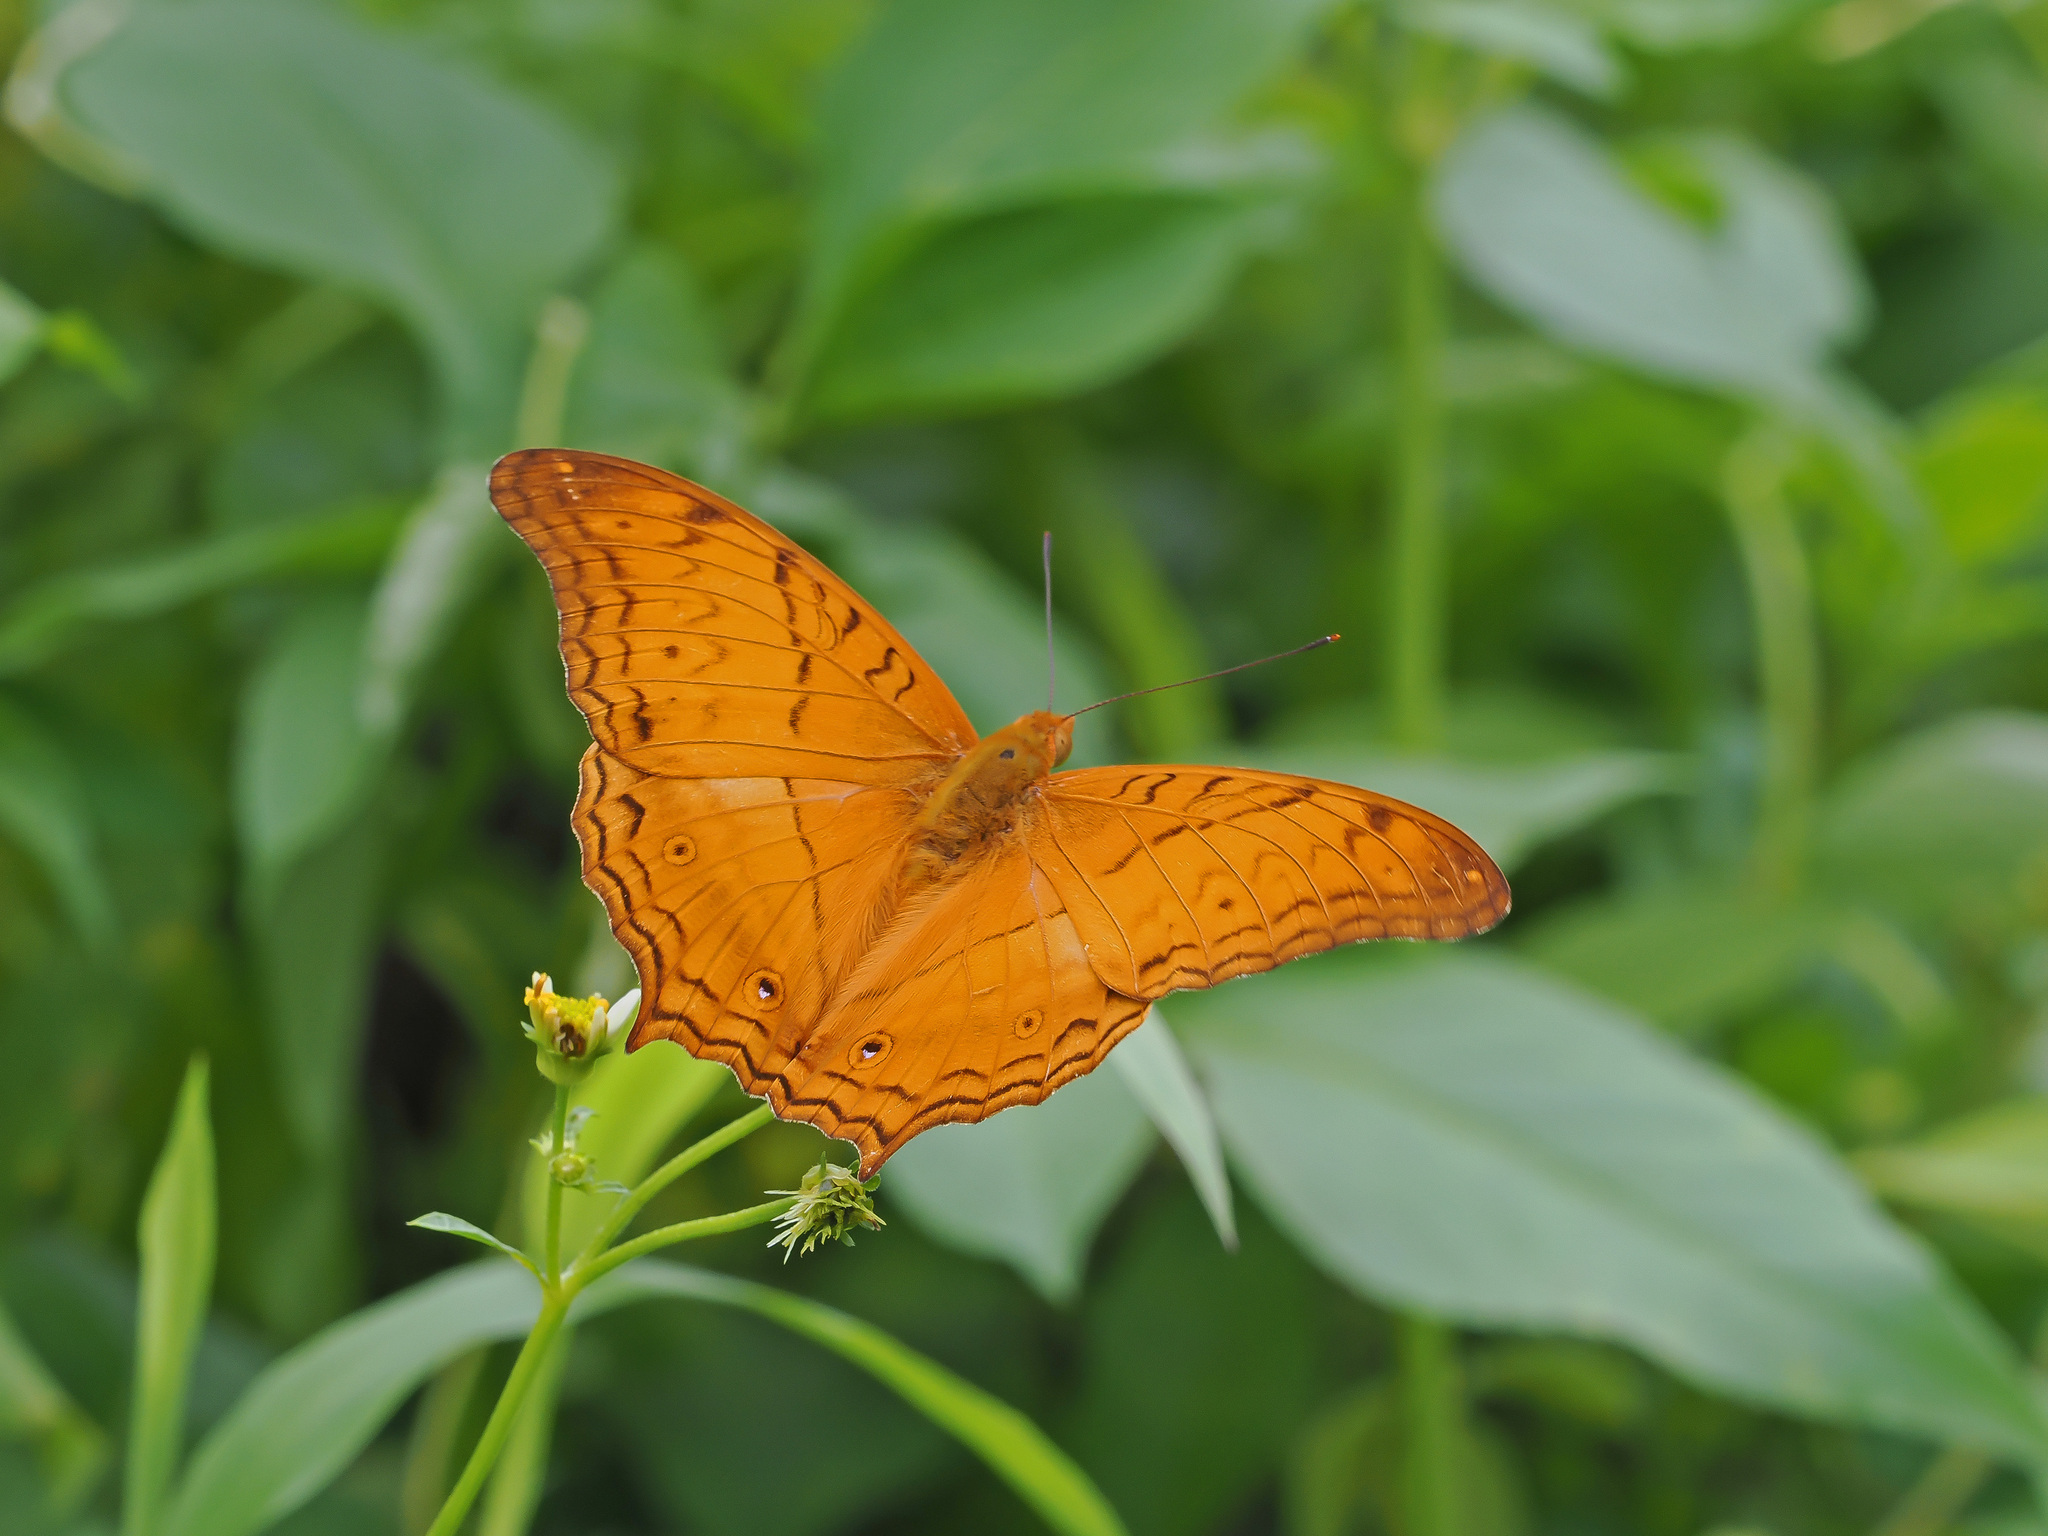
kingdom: Animalia
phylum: Arthropoda
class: Insecta
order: Lepidoptera
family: Nymphalidae
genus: Vindula
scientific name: Vindula deione
